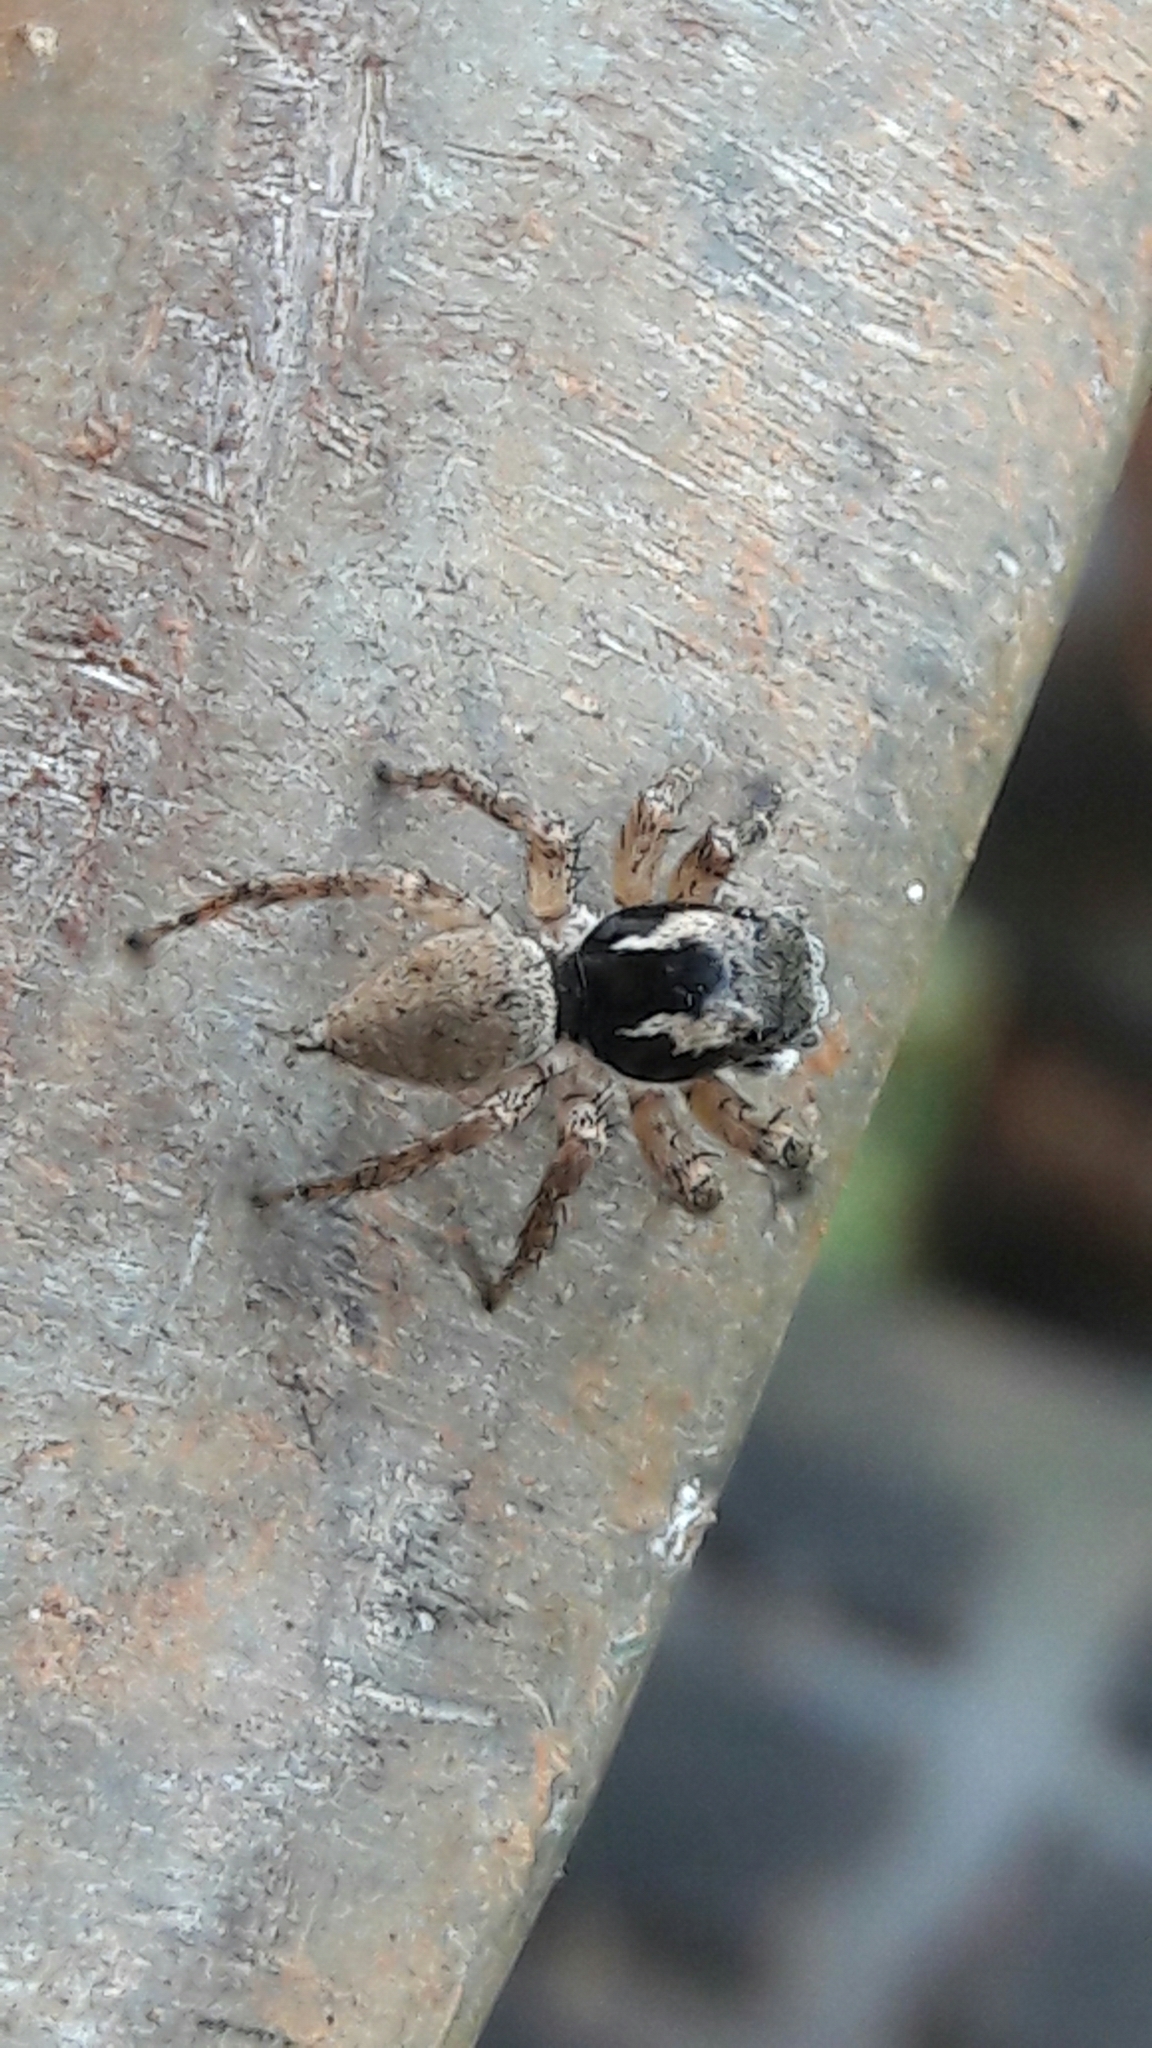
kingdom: Animalia
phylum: Arthropoda
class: Arachnida
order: Araneae
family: Salticidae
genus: Sumampattus
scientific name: Sumampattus quinqueradiatus
